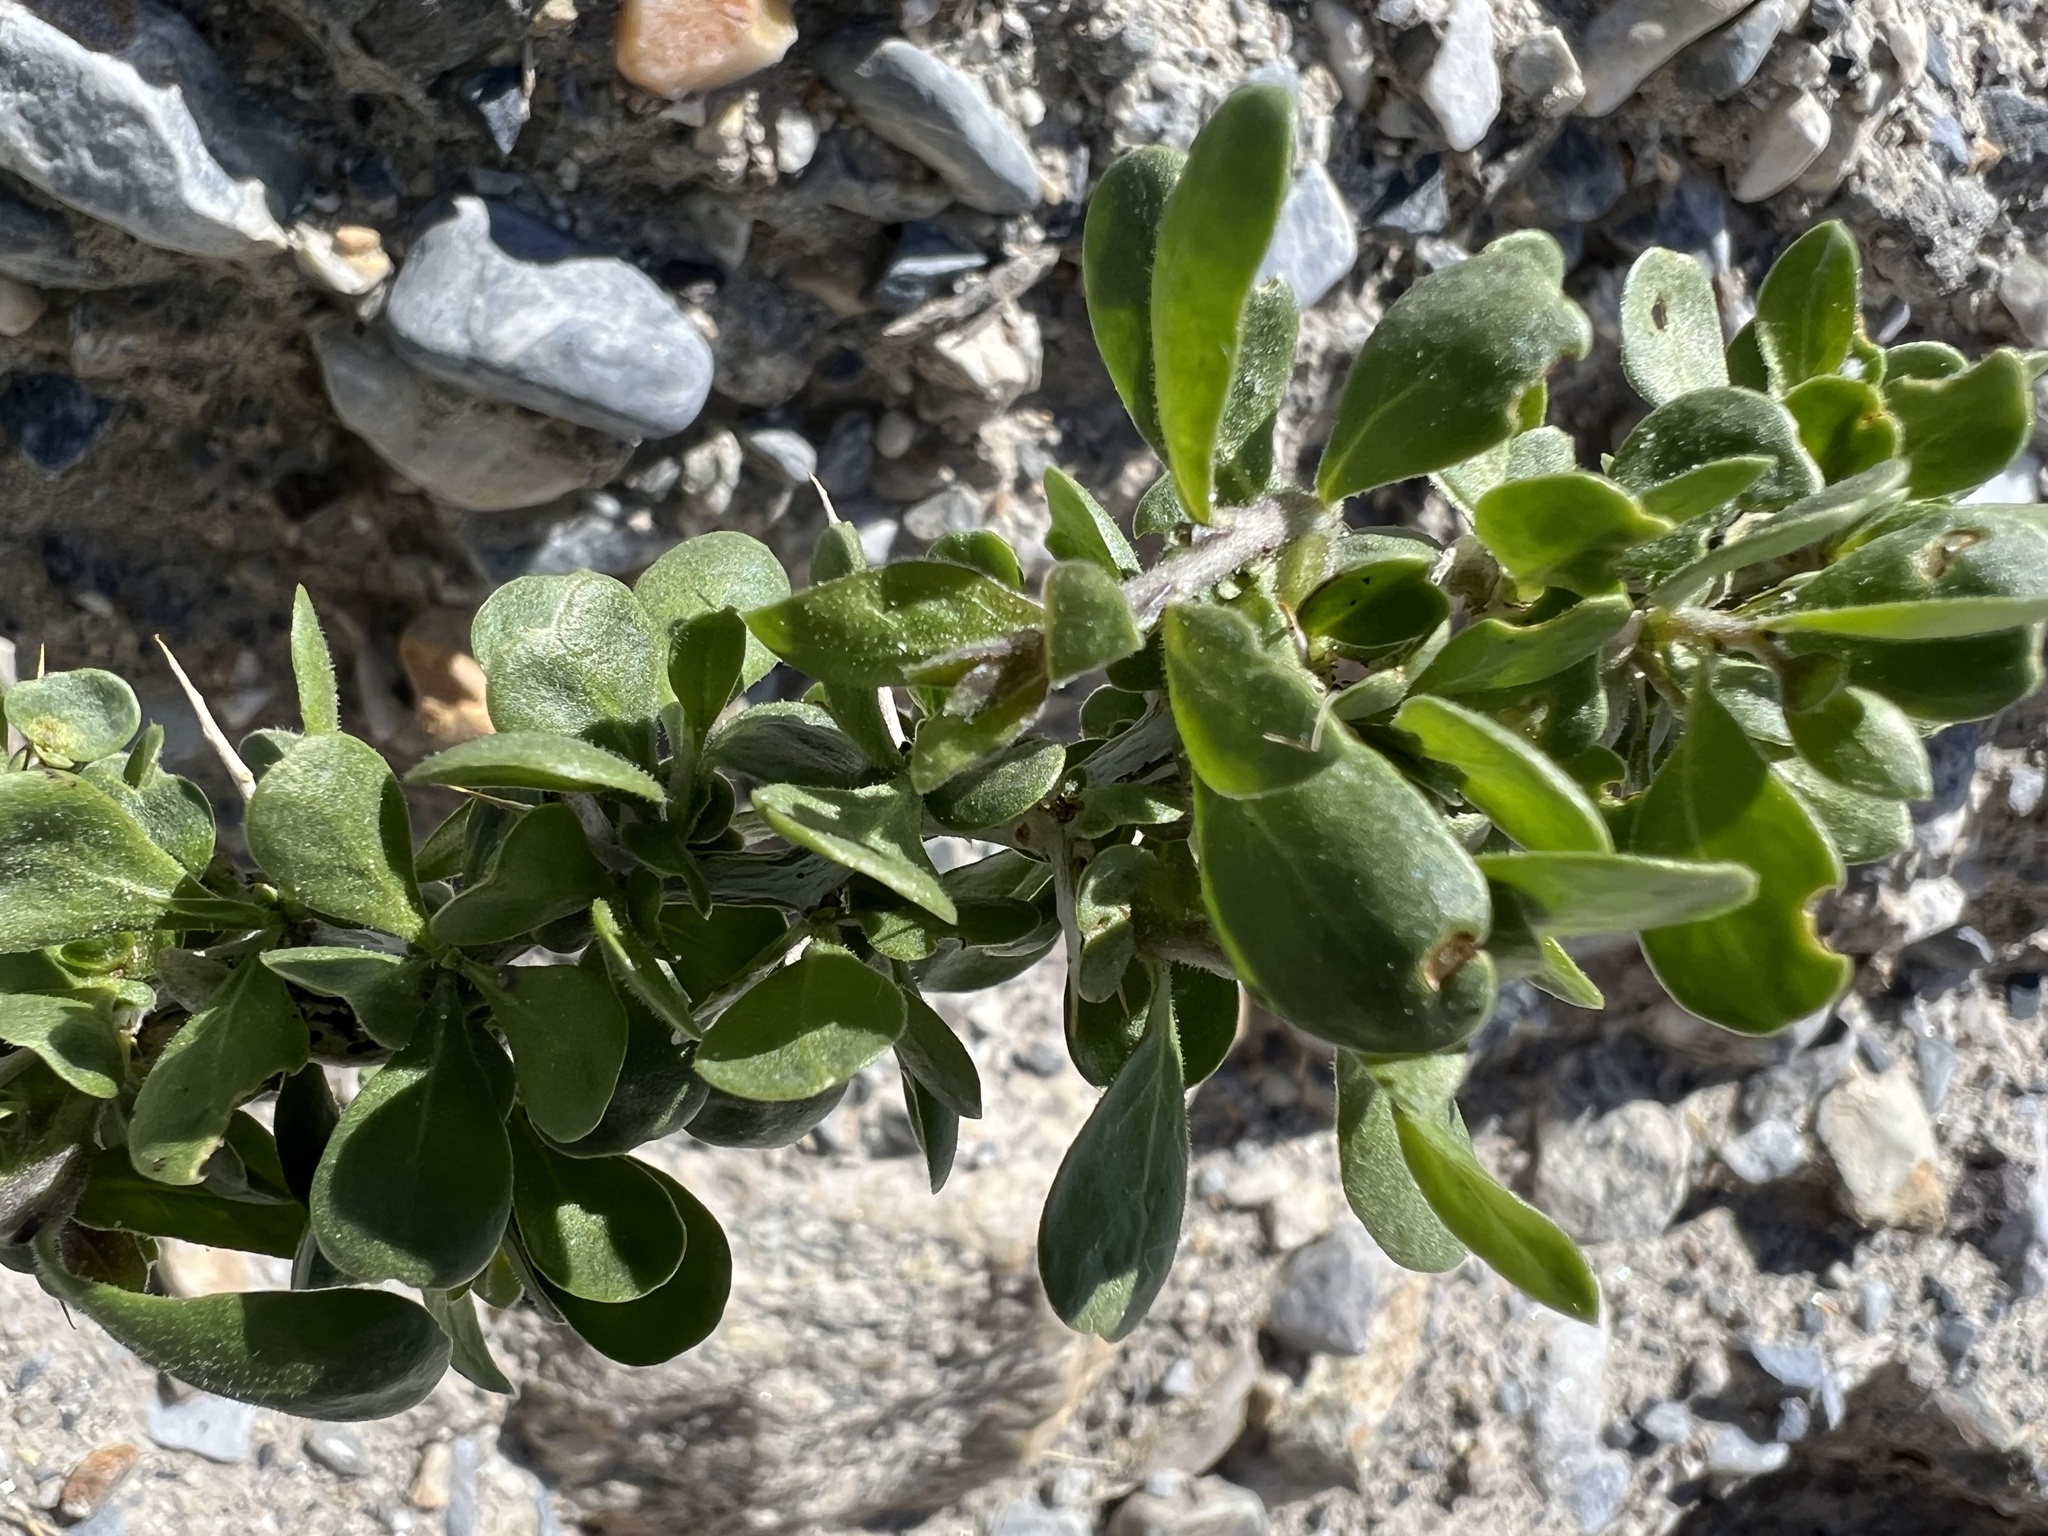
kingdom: Plantae
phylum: Tracheophyta
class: Magnoliopsida
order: Solanales
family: Solanaceae
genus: Lycium
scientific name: Lycium cooperi
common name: Peachthorn
